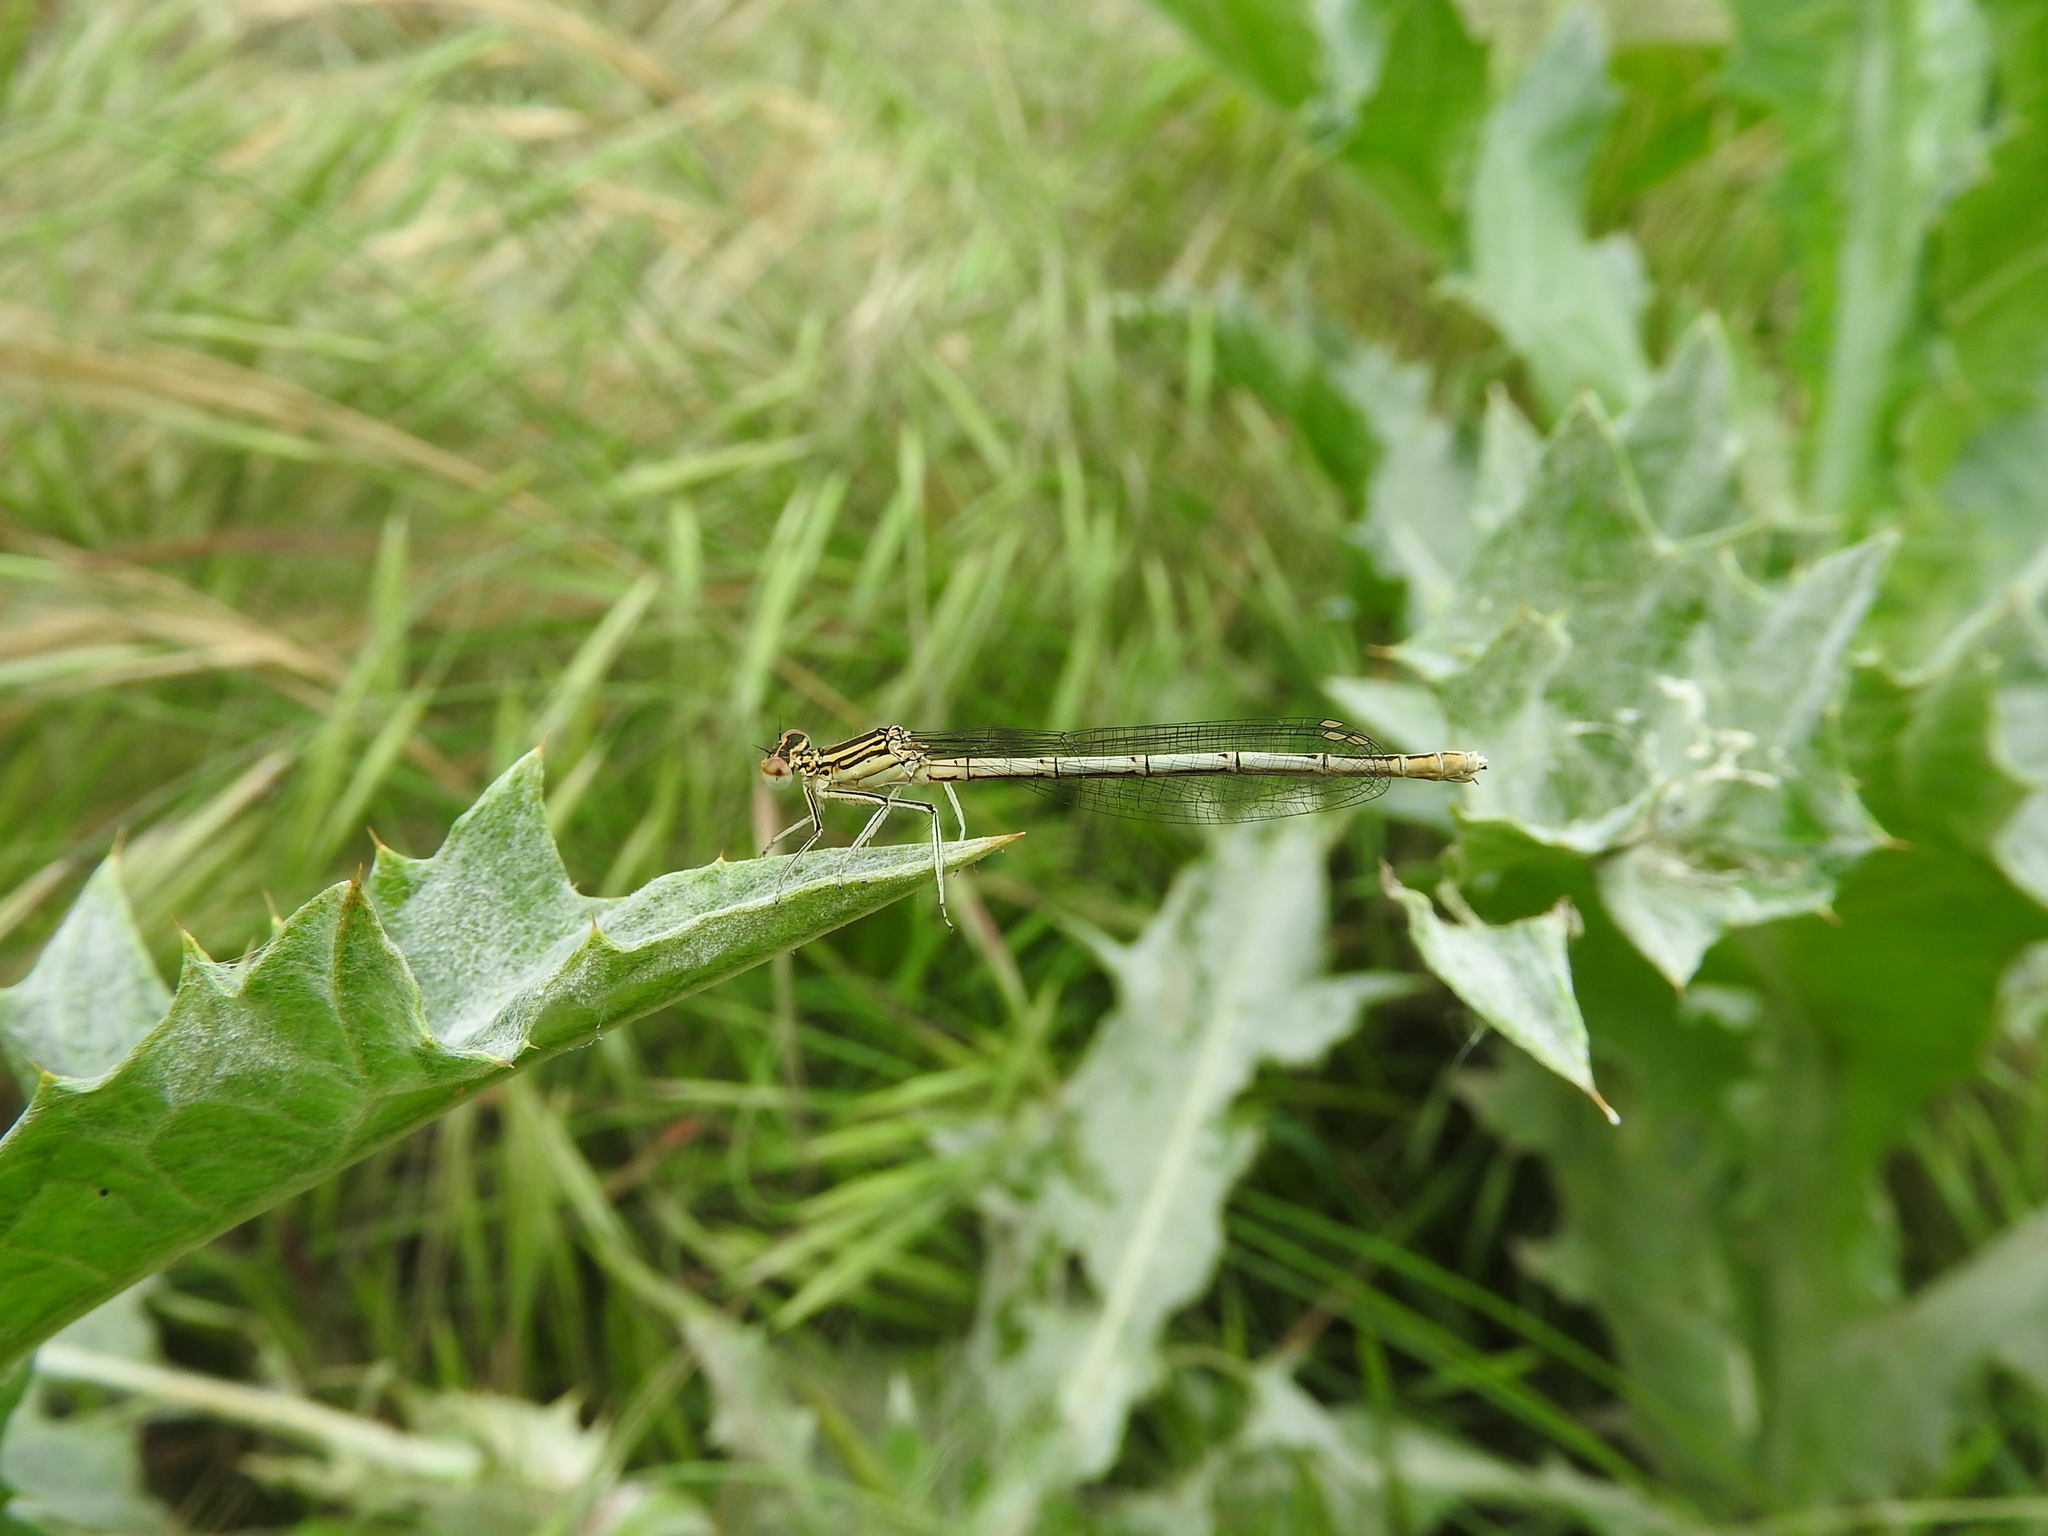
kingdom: Animalia
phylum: Arthropoda
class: Insecta
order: Odonata
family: Platycnemididae
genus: Platycnemis
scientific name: Platycnemis pennipes
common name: White-legged damselfly
